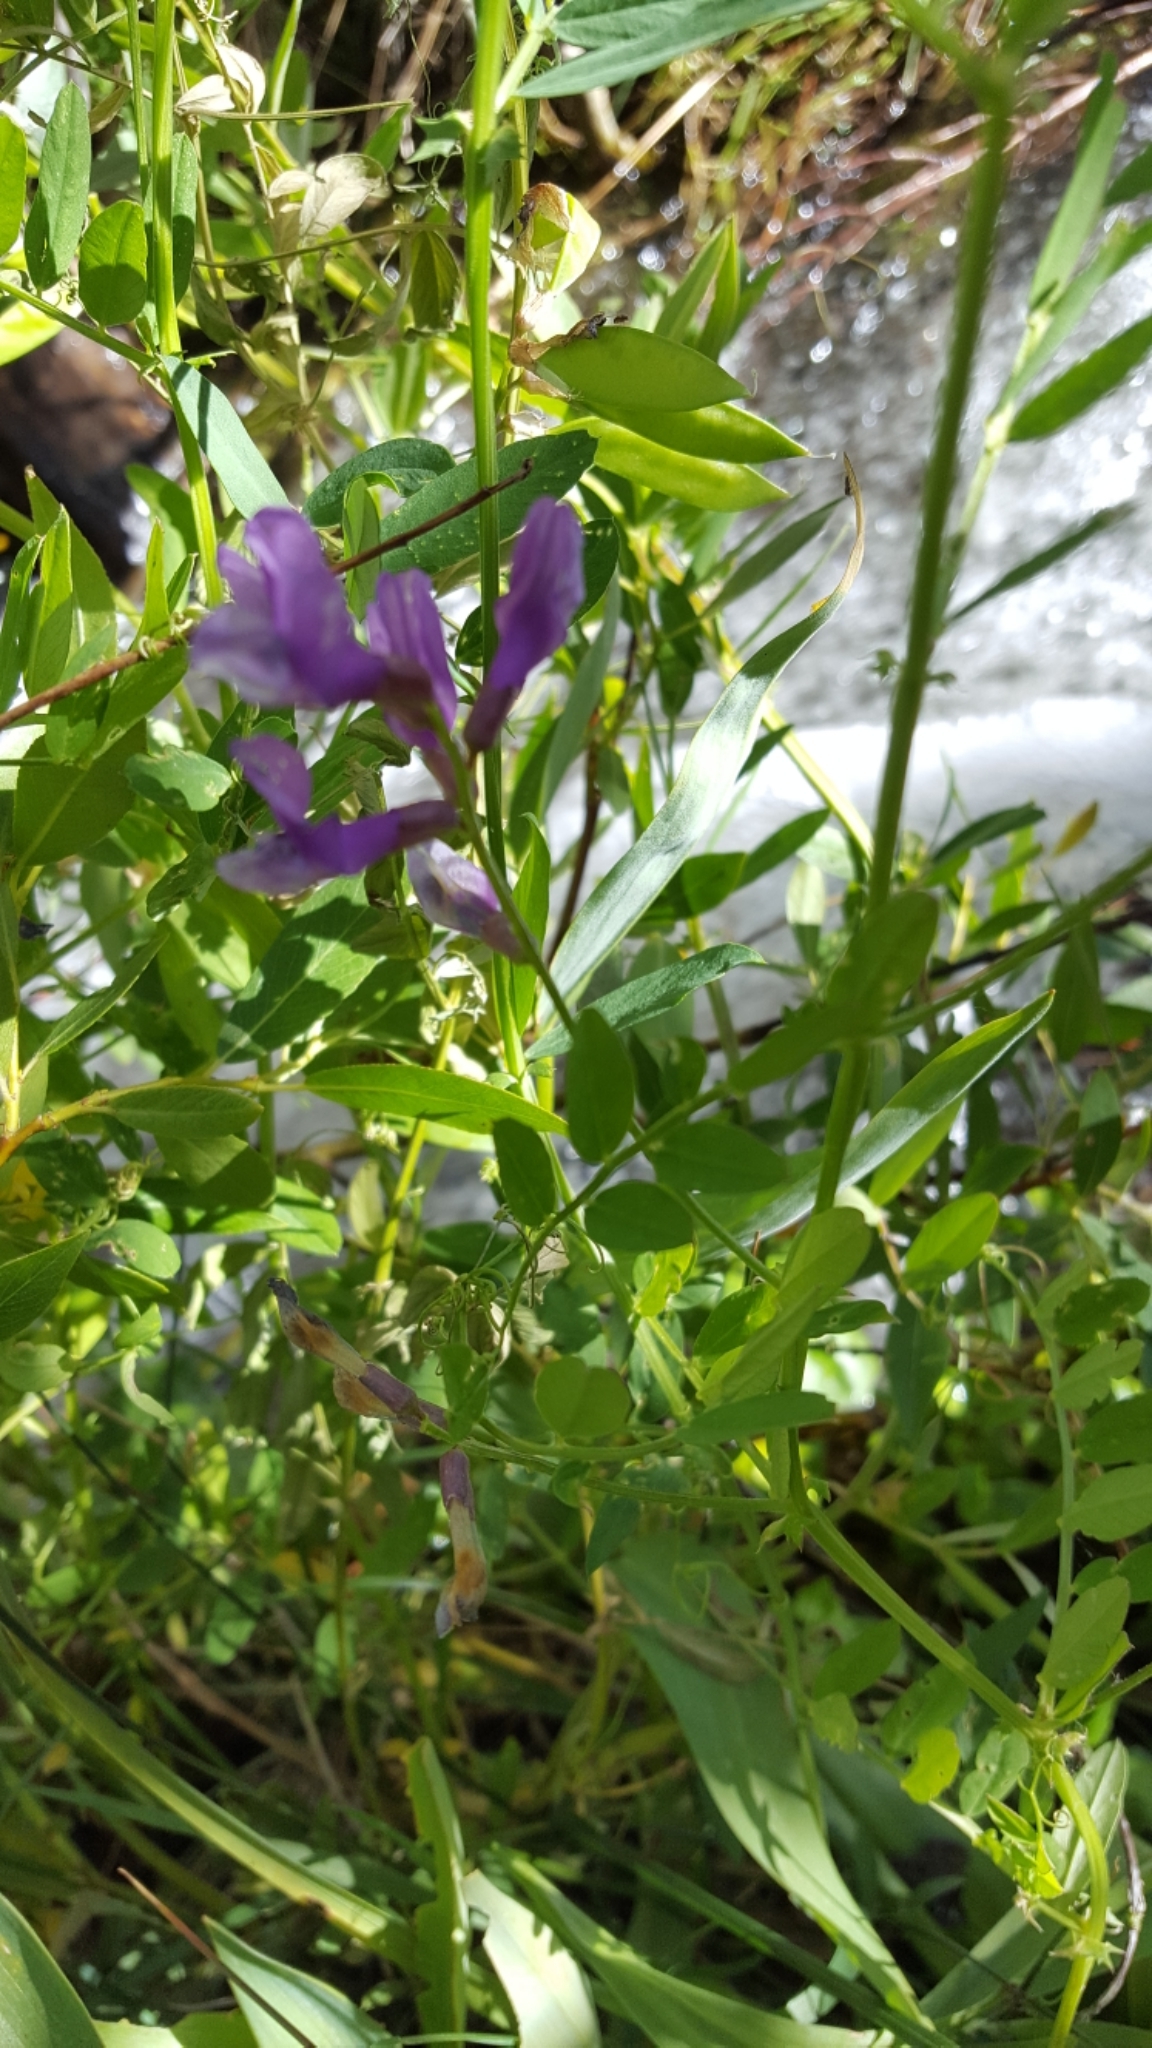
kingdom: Plantae
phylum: Tracheophyta
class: Magnoliopsida
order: Fabales
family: Fabaceae
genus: Vicia
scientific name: Vicia americana
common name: American vetch
